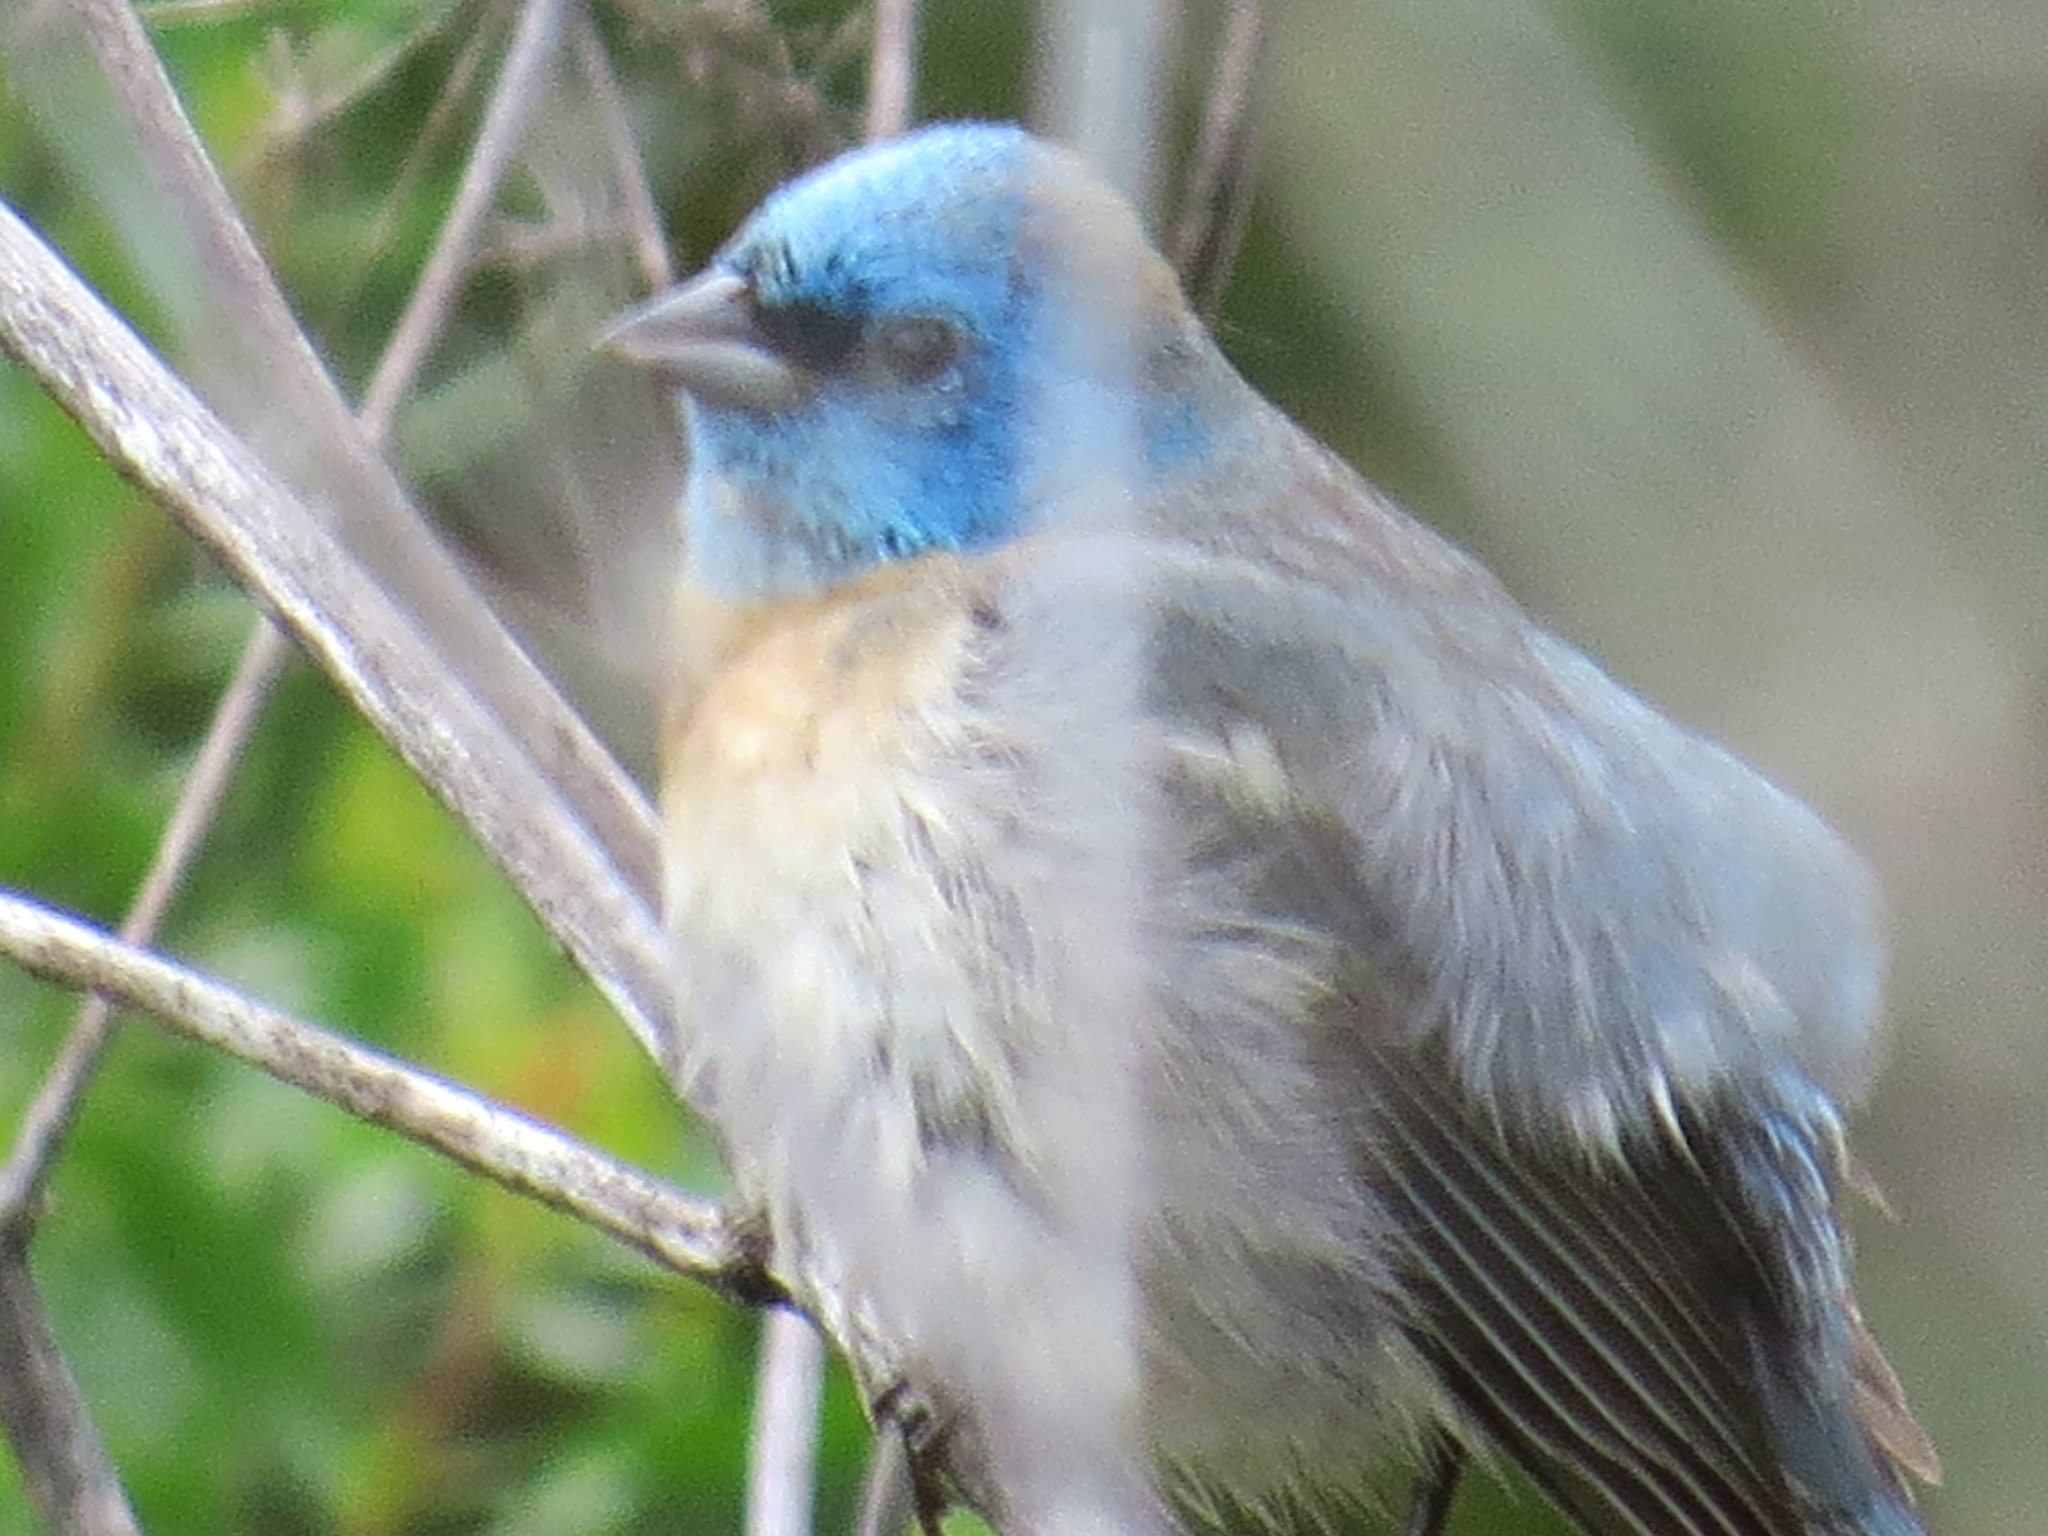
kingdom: Animalia
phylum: Chordata
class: Aves
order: Passeriformes
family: Cardinalidae
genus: Passerina
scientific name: Passerina amoena
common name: Lazuli bunting
